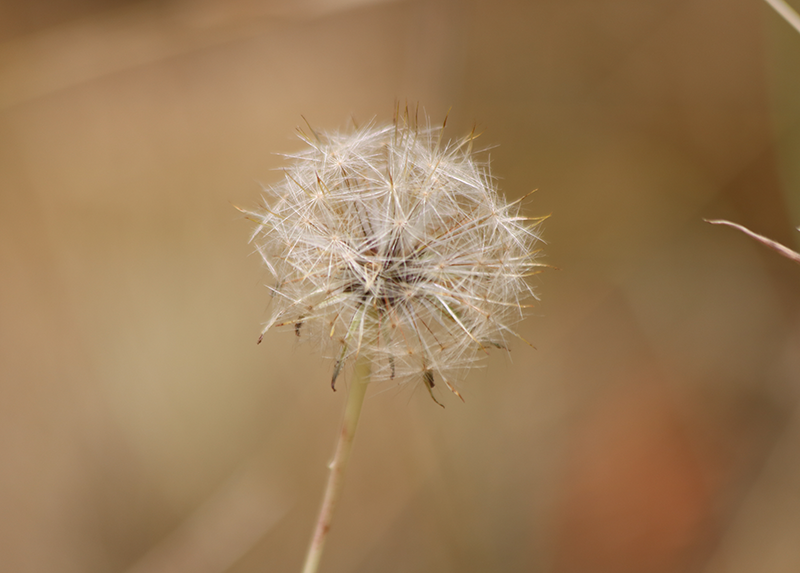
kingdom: Plantae
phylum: Tracheophyta
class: Magnoliopsida
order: Asterales
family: Asteraceae
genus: Taraxacum
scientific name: Taraxacum officinale
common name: Common dandelion
